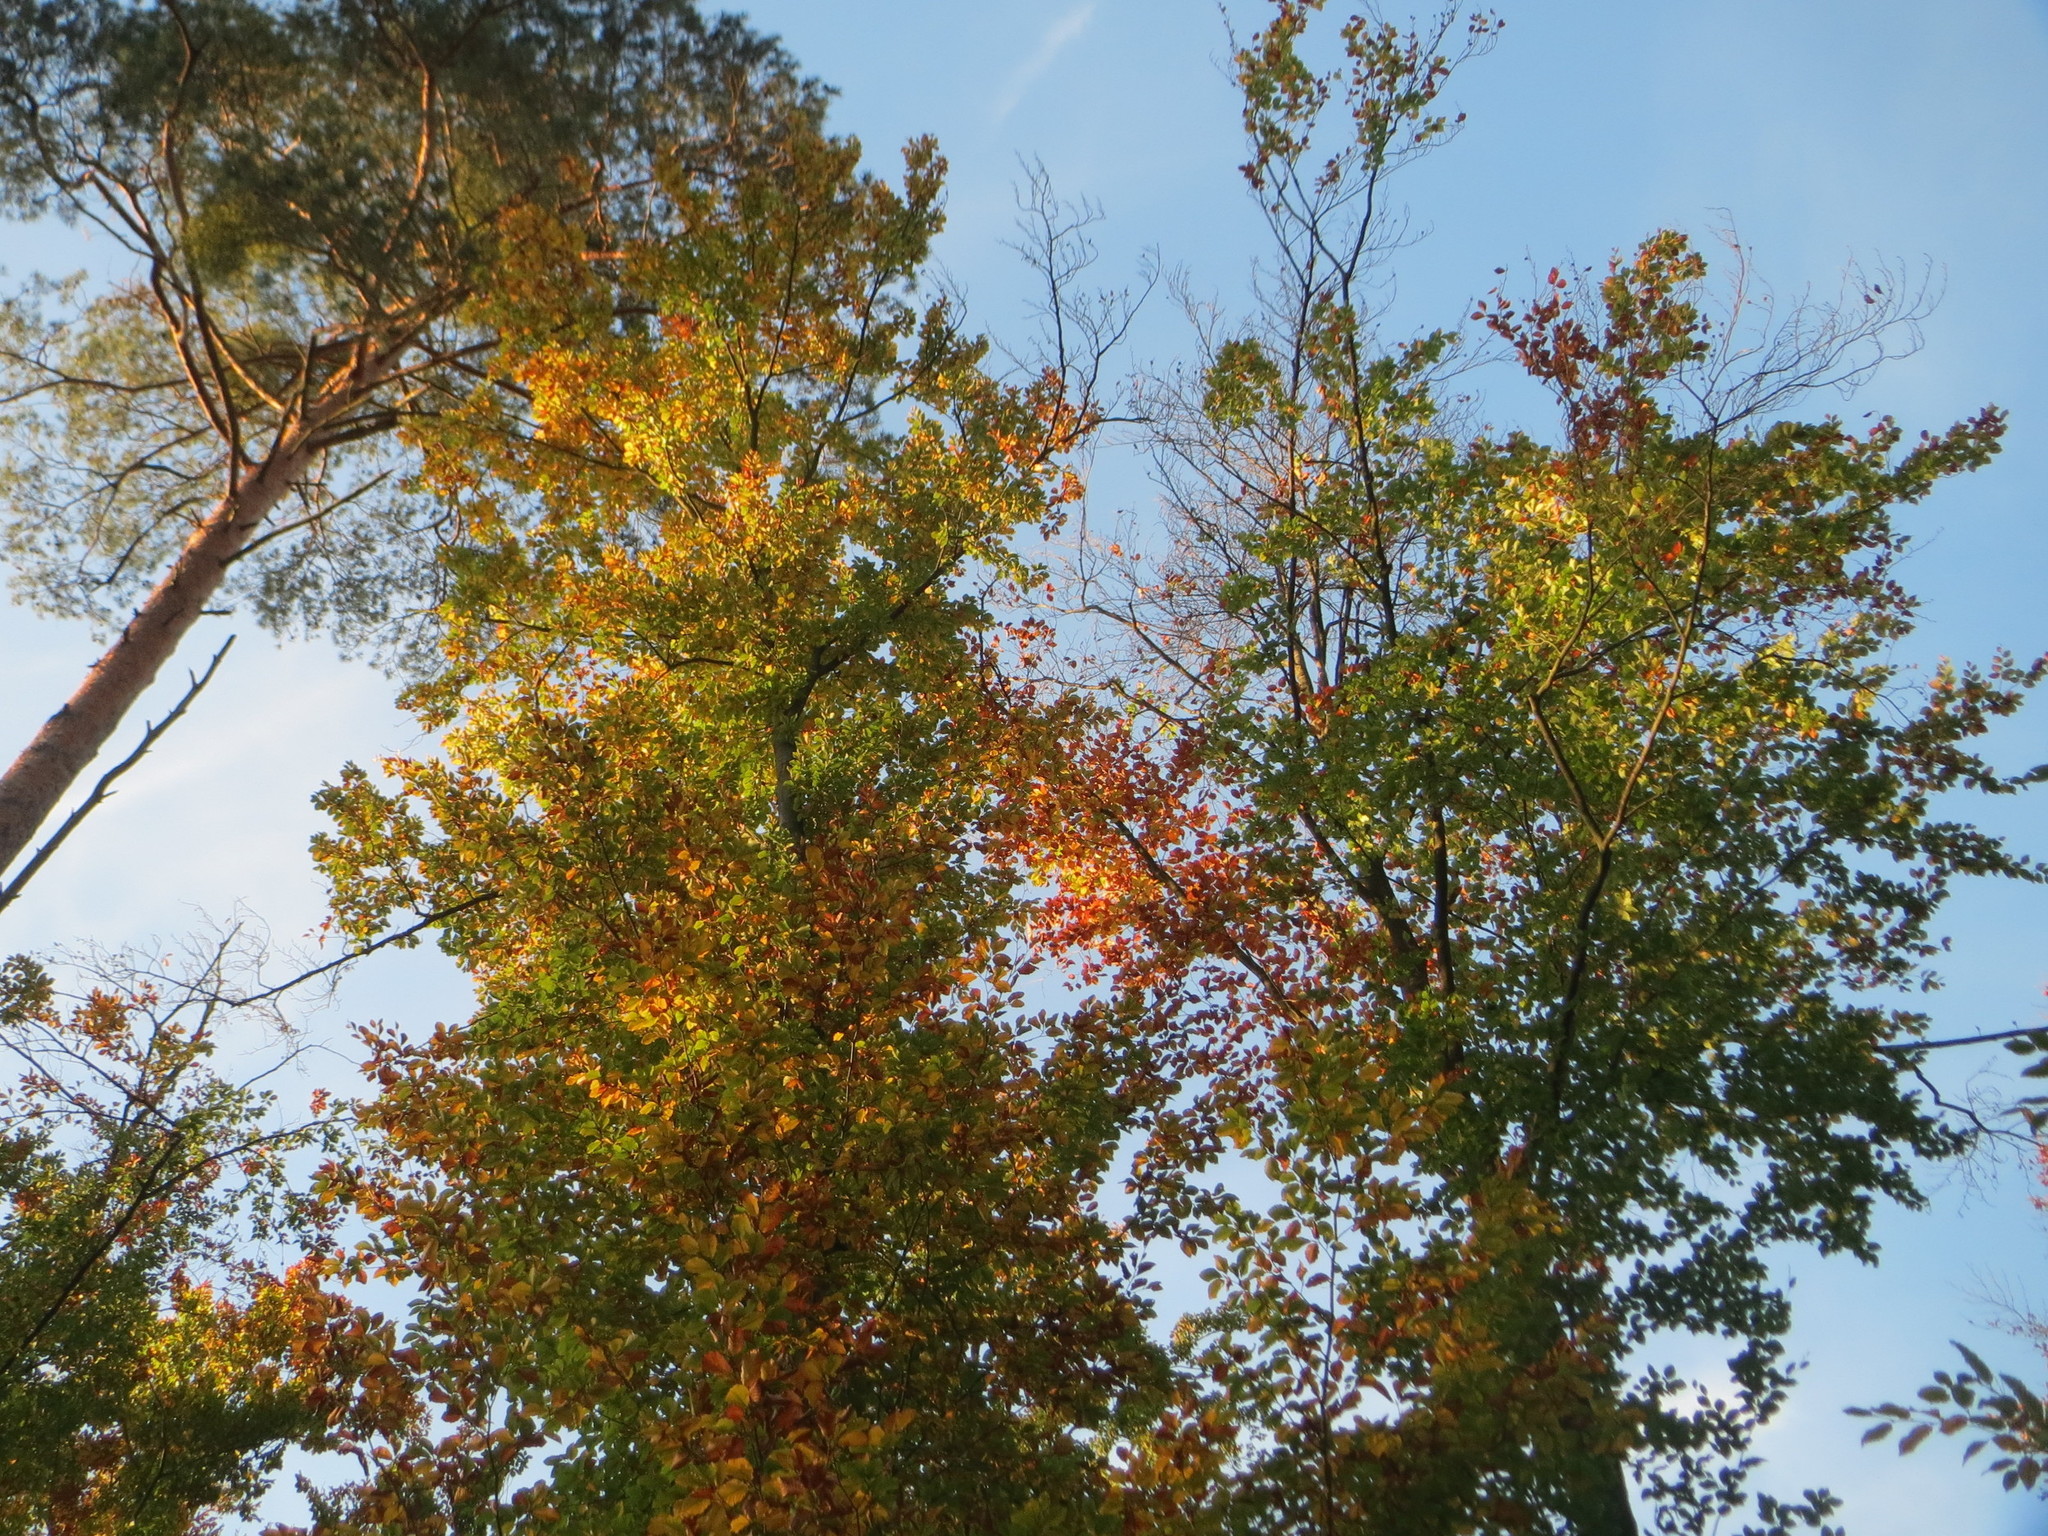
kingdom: Plantae
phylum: Tracheophyta
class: Magnoliopsida
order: Fagales
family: Fagaceae
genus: Fagus
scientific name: Fagus sylvatica
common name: Beech
